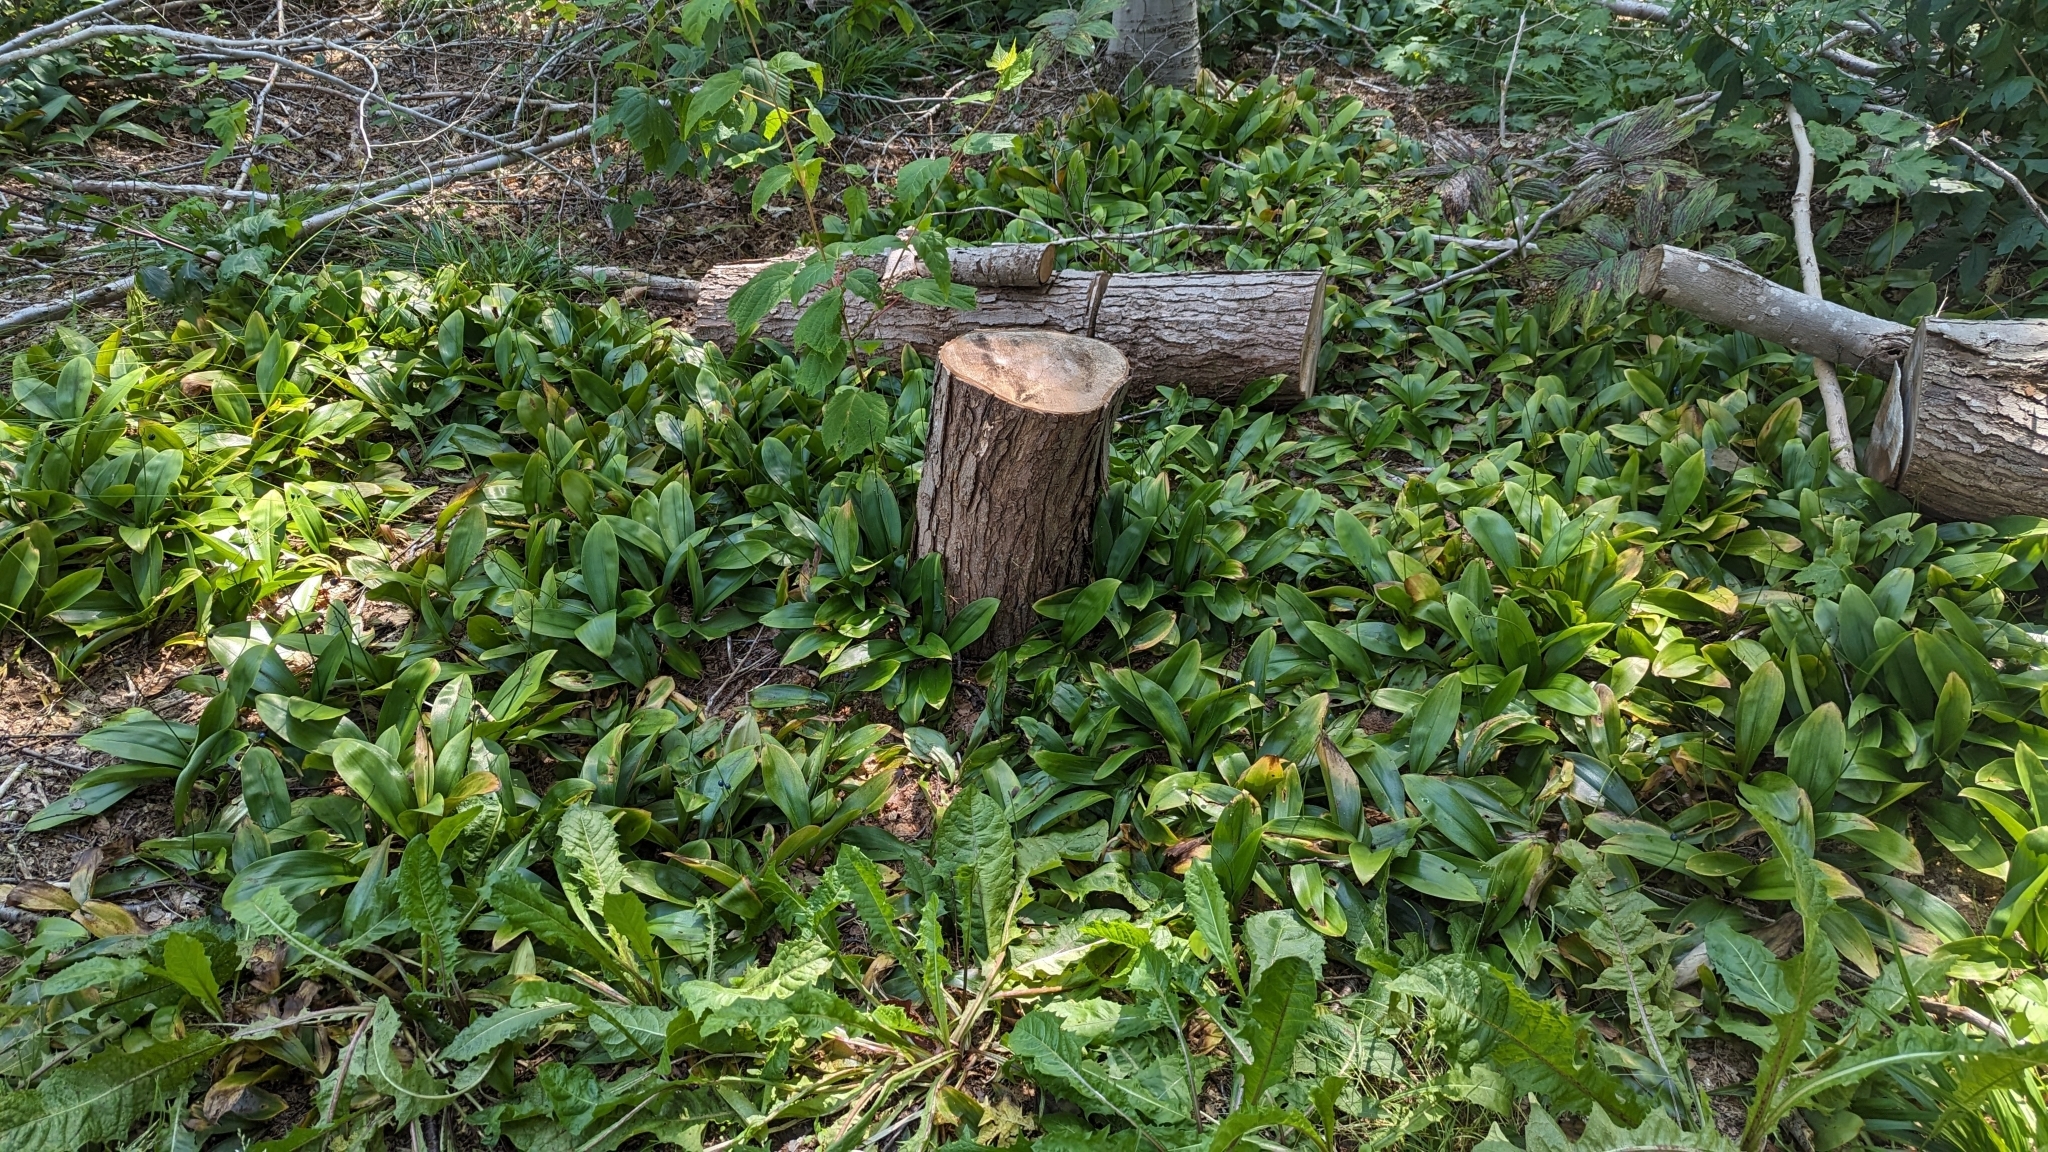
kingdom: Plantae
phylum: Tracheophyta
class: Liliopsida
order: Liliales
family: Liliaceae
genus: Clintonia
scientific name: Clintonia borealis
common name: Yellow clintonia
